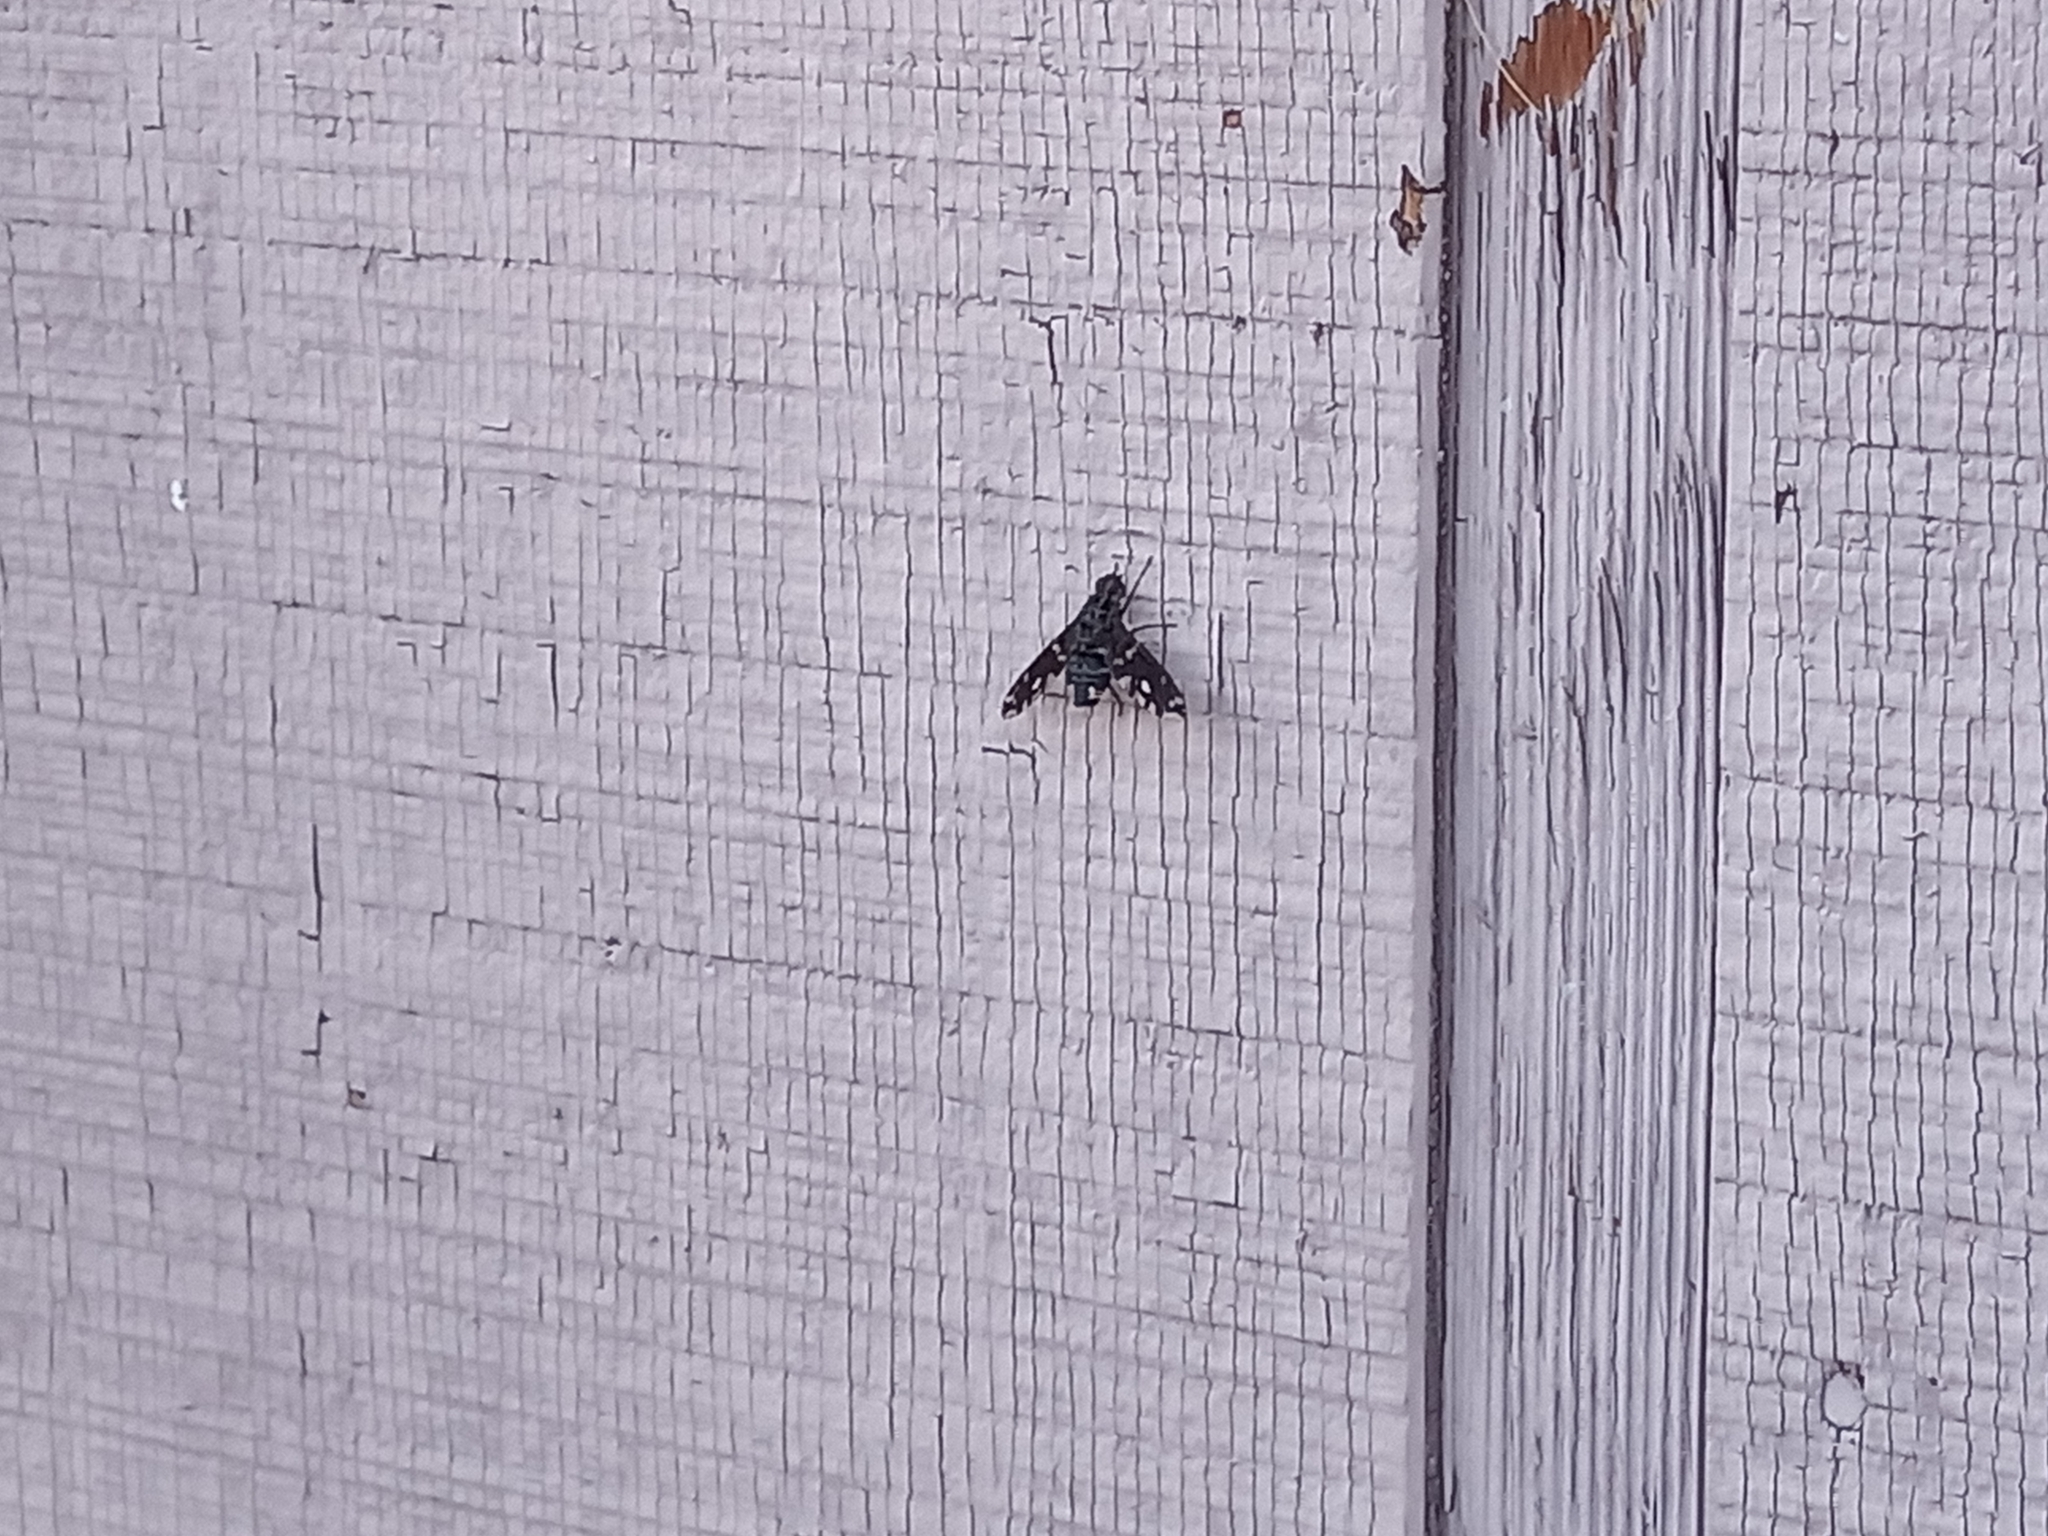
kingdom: Animalia
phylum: Arthropoda
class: Insecta
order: Diptera
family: Bombyliidae
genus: Xenox
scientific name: Xenox tigrinus
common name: Tiger bee fly
